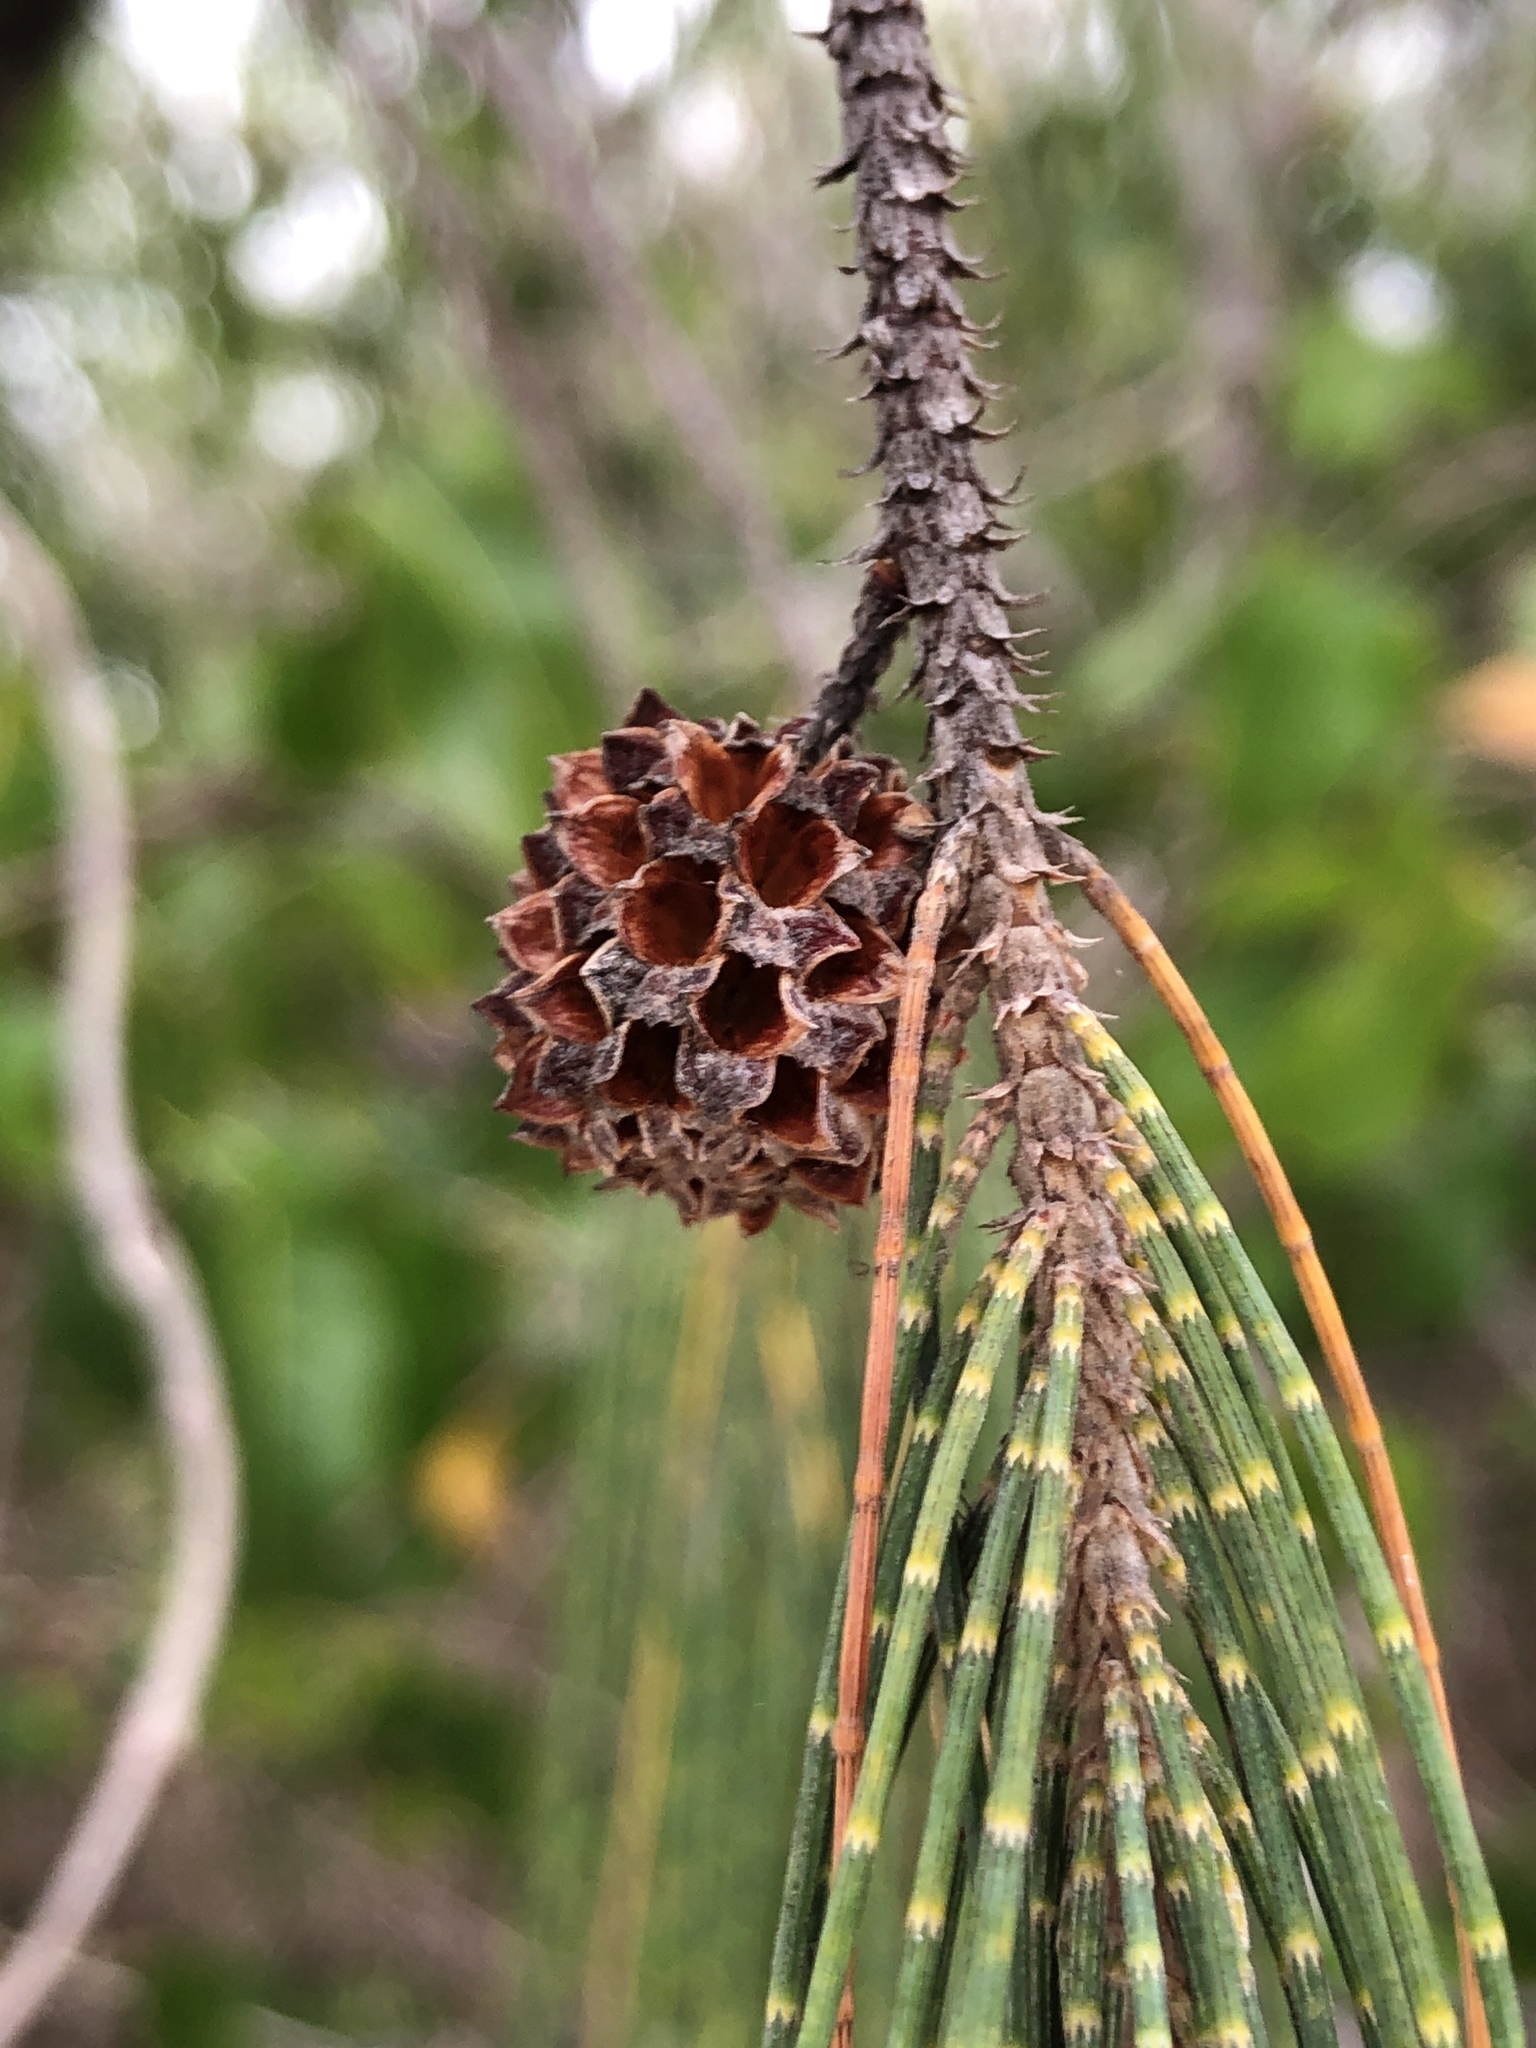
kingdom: Plantae
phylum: Tracheophyta
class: Magnoliopsida
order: Fagales
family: Casuarinaceae
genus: Casuarina
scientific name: Casuarina equisetifolia
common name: Beach sheoak
